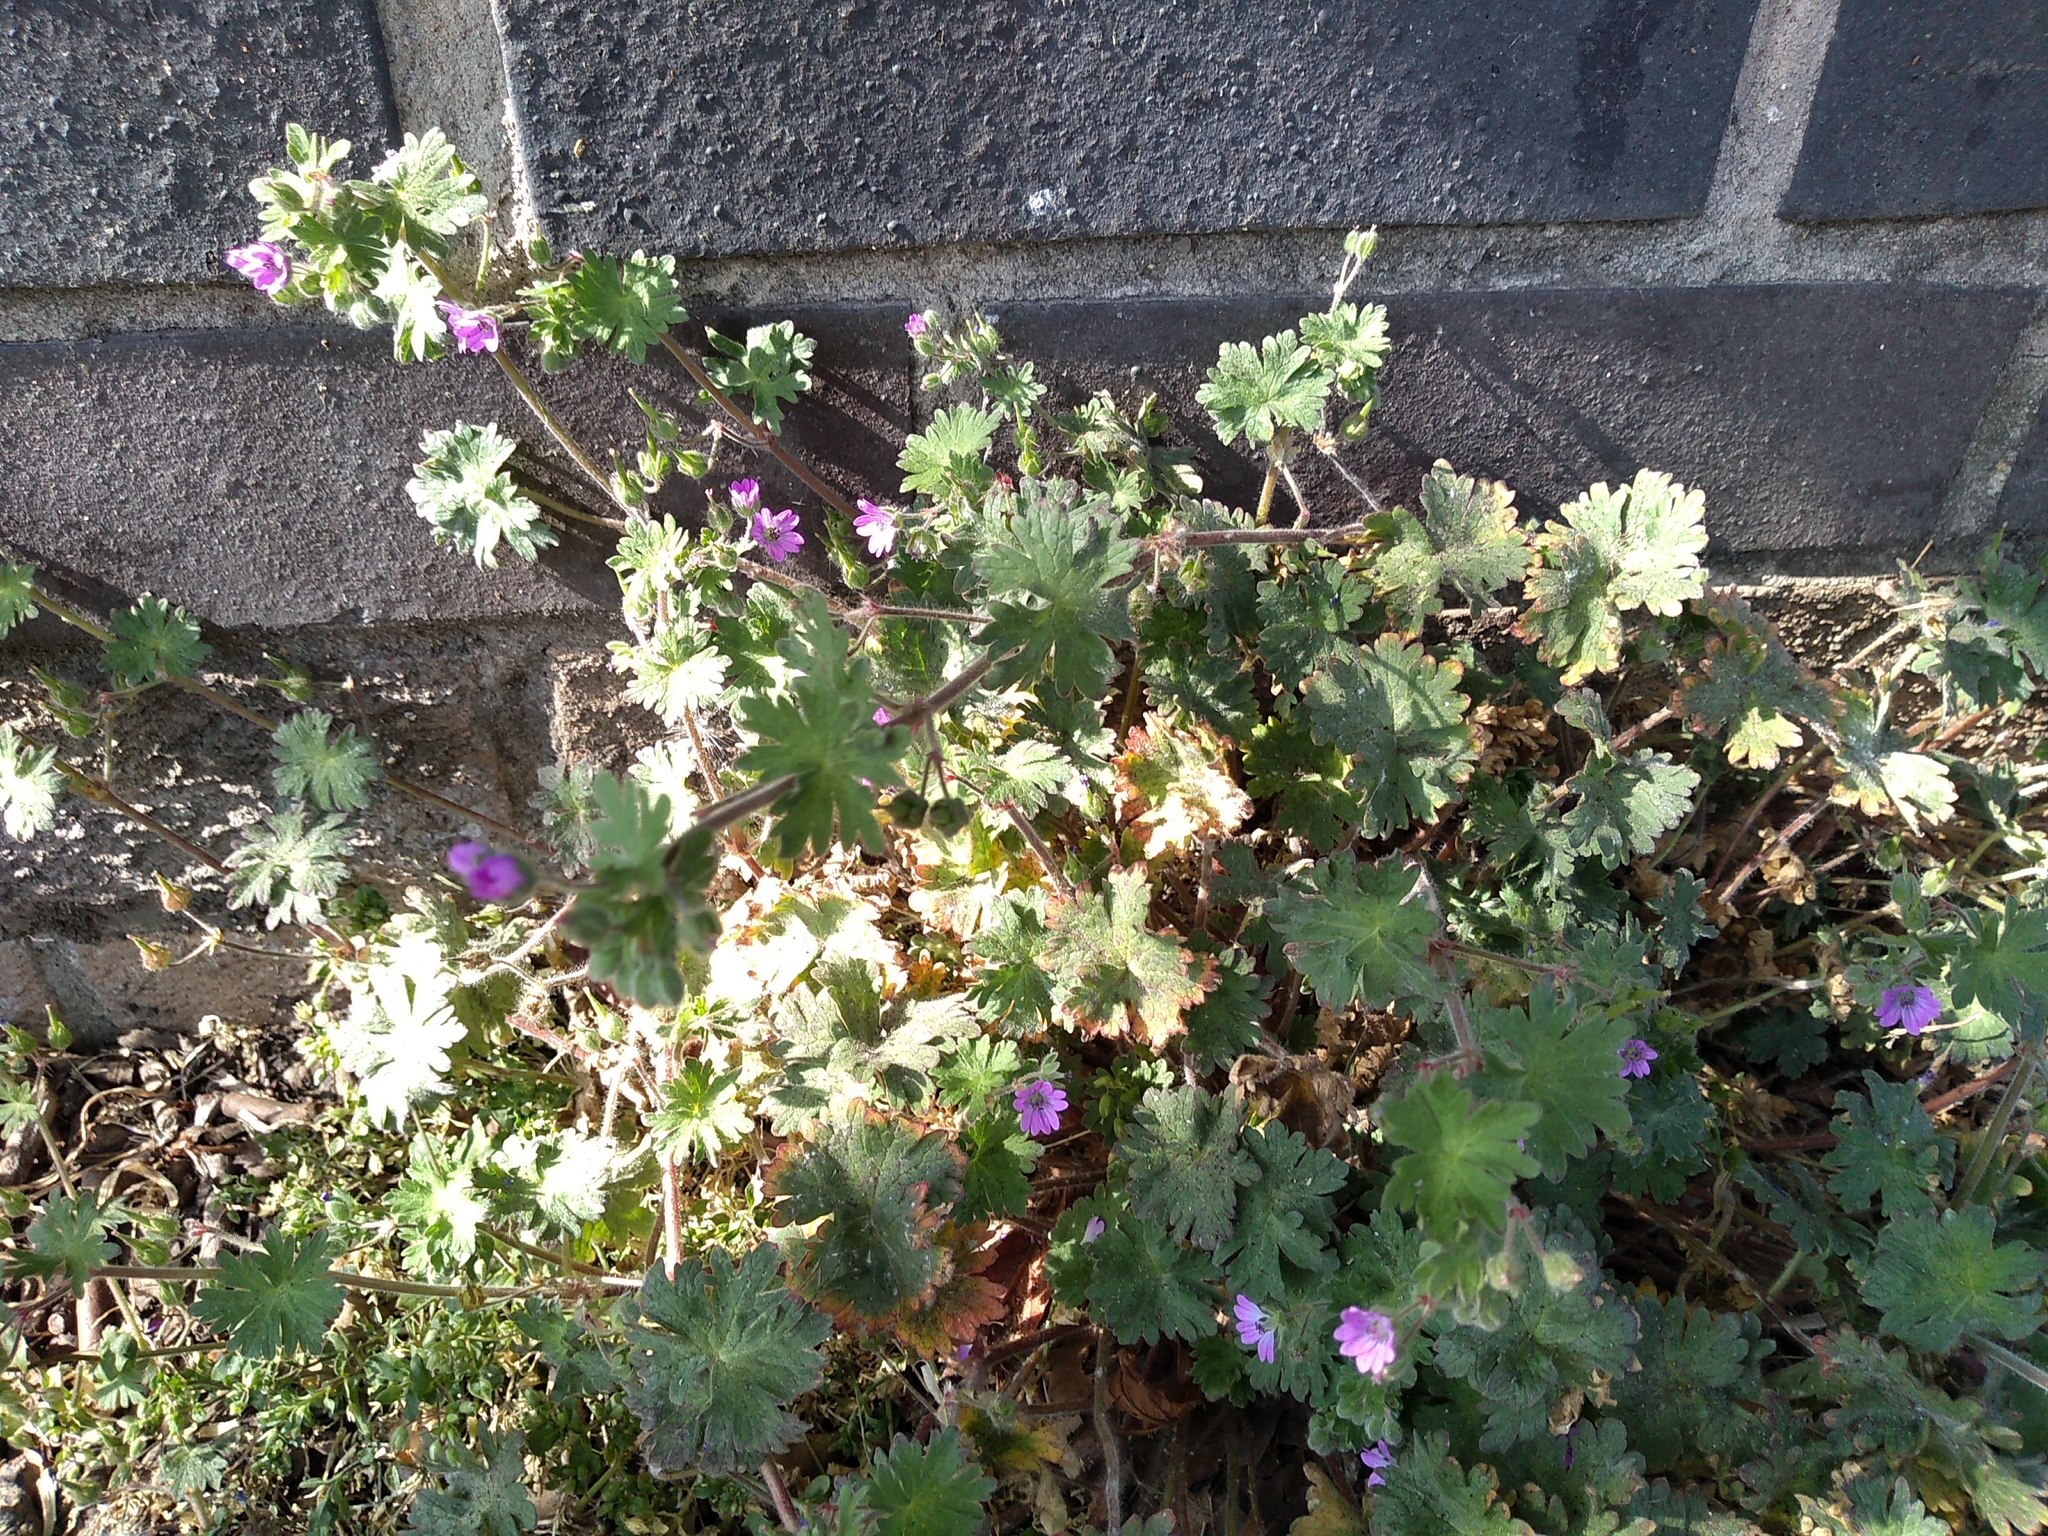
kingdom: Plantae
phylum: Tracheophyta
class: Magnoliopsida
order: Geraniales
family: Geraniaceae
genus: Geranium
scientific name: Geranium molle
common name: Dove's-foot crane's-bill
